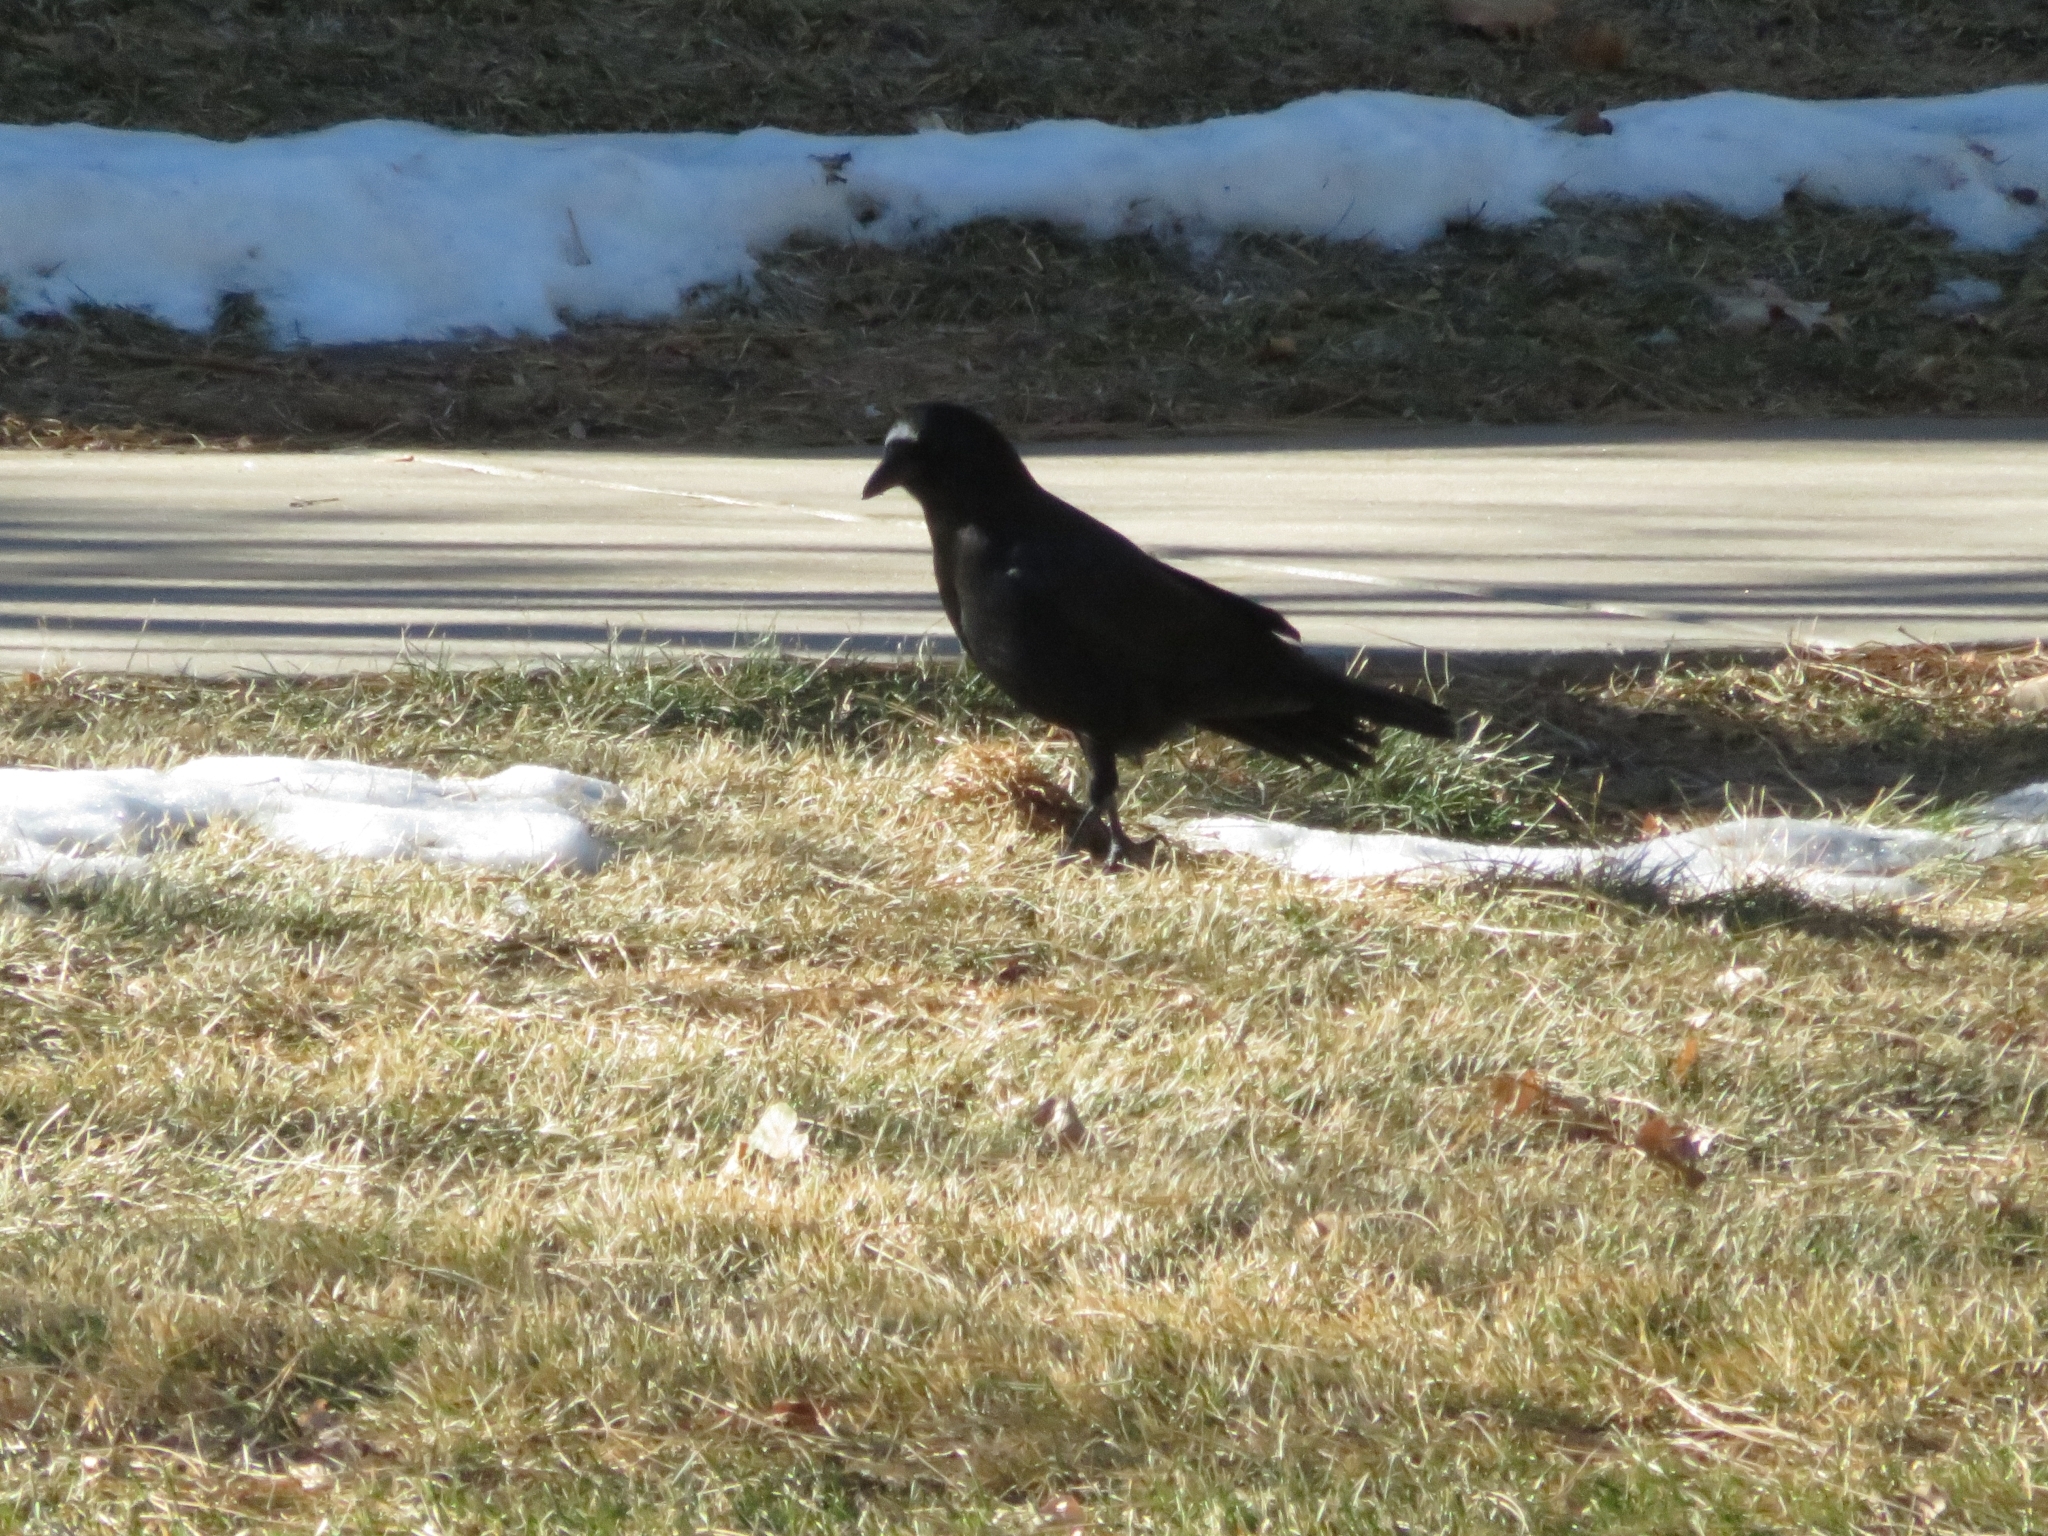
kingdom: Animalia
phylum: Chordata
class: Aves
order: Passeriformes
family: Corvidae
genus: Corvus
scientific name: Corvus brachyrhynchos
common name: American crow
